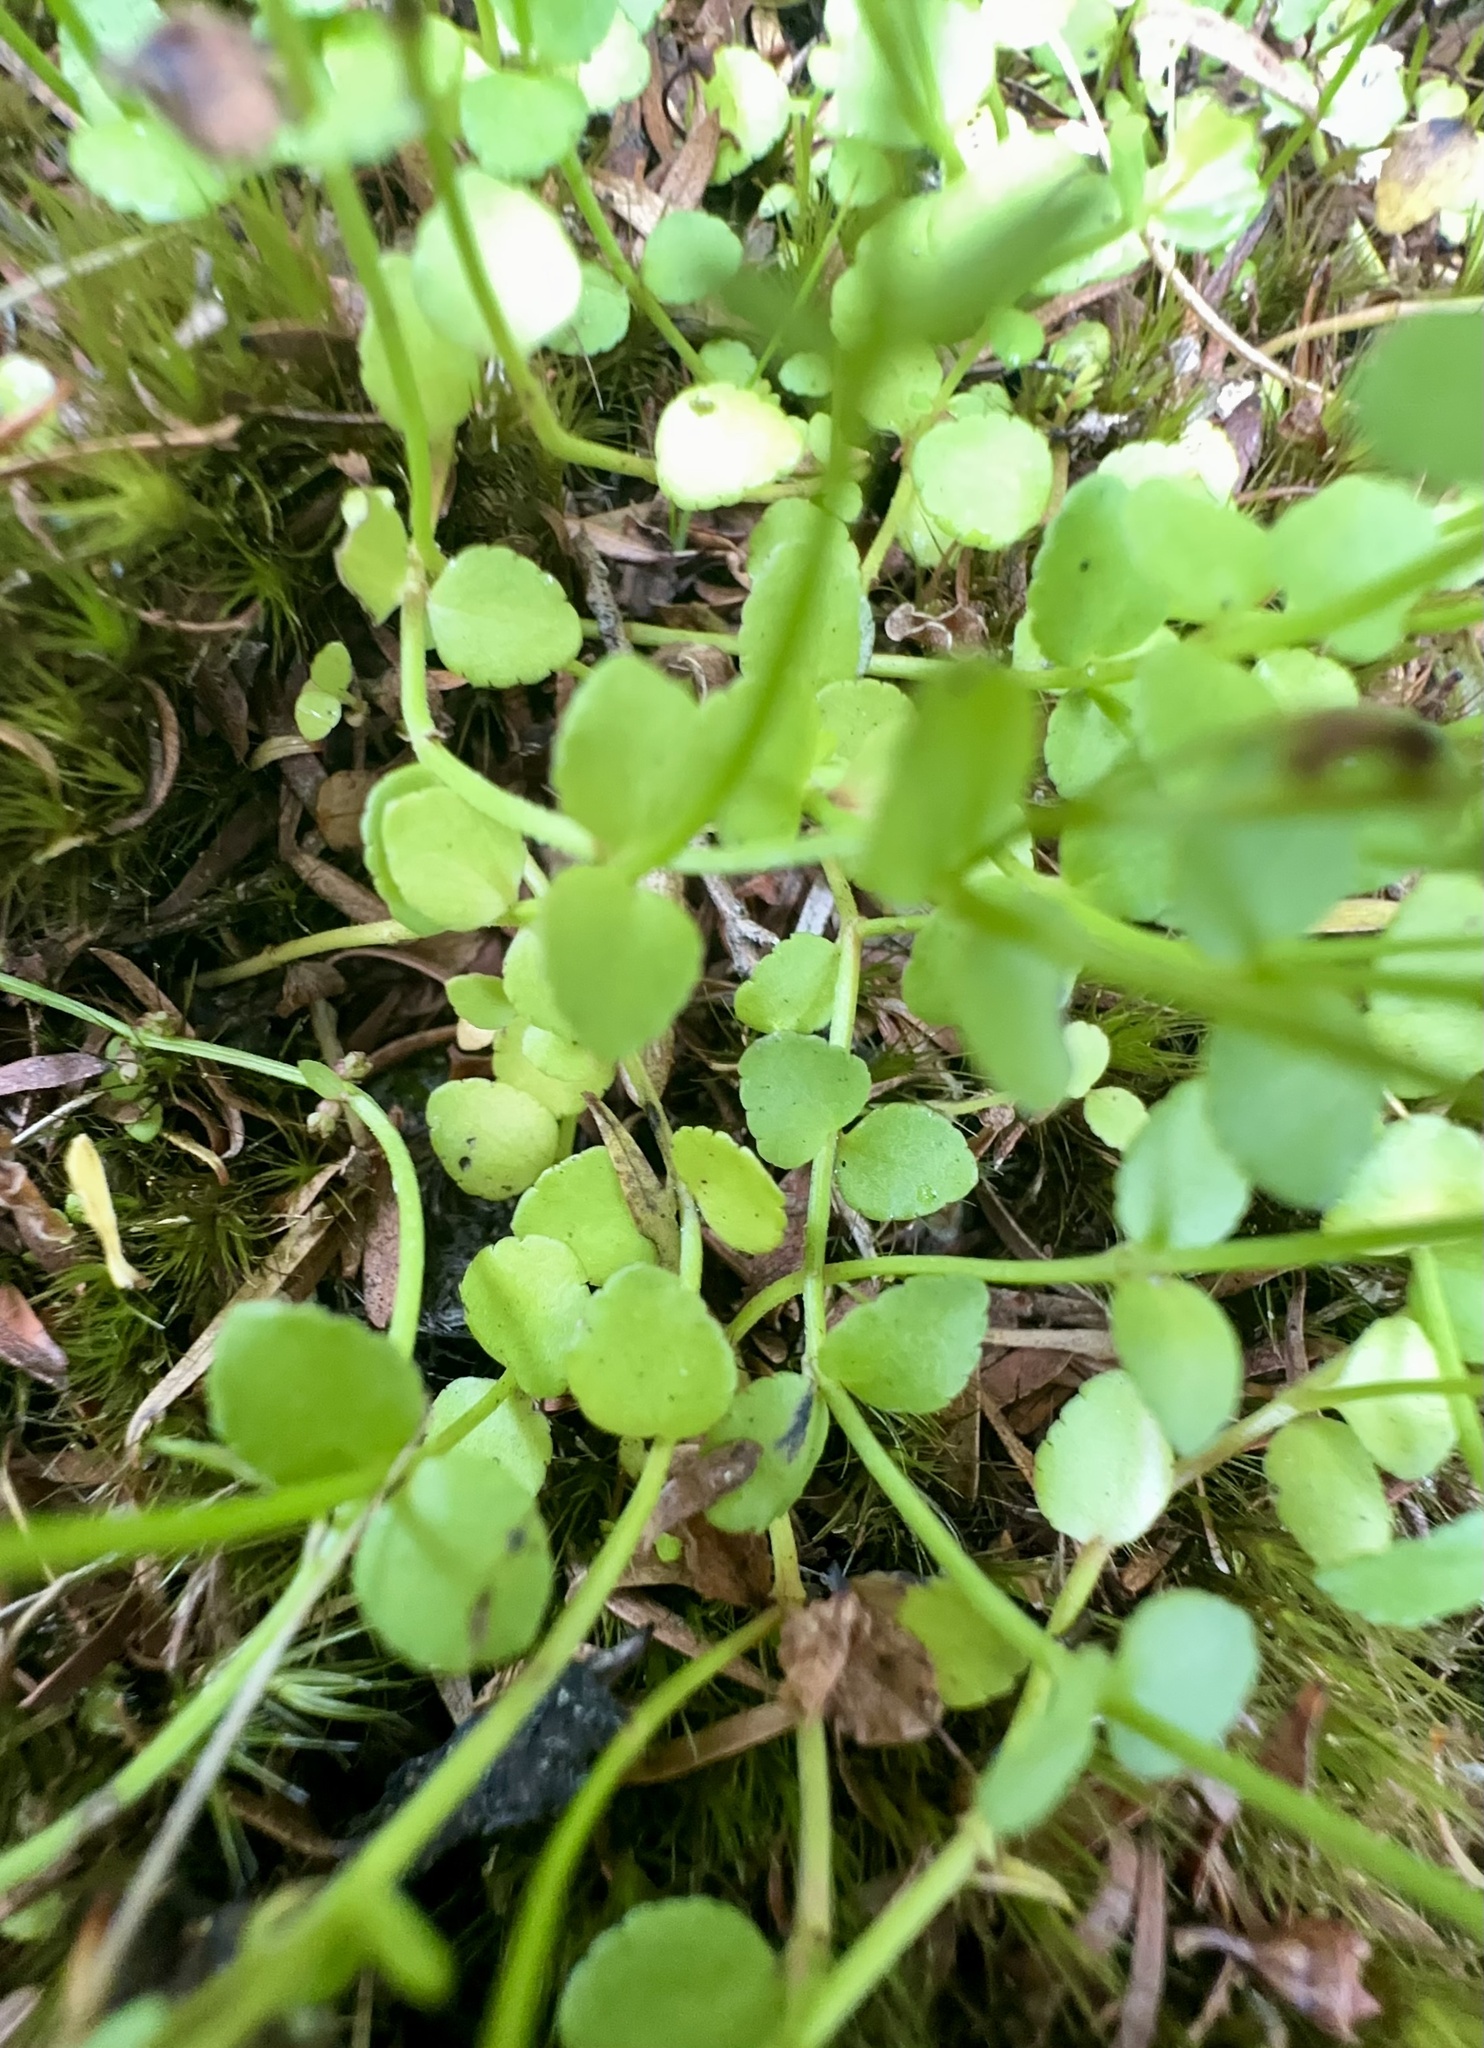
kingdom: Plantae
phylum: Tracheophyta
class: Magnoliopsida
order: Saxifragales
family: Haloragaceae
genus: Gonocarpus
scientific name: Gonocarpus micranthus
